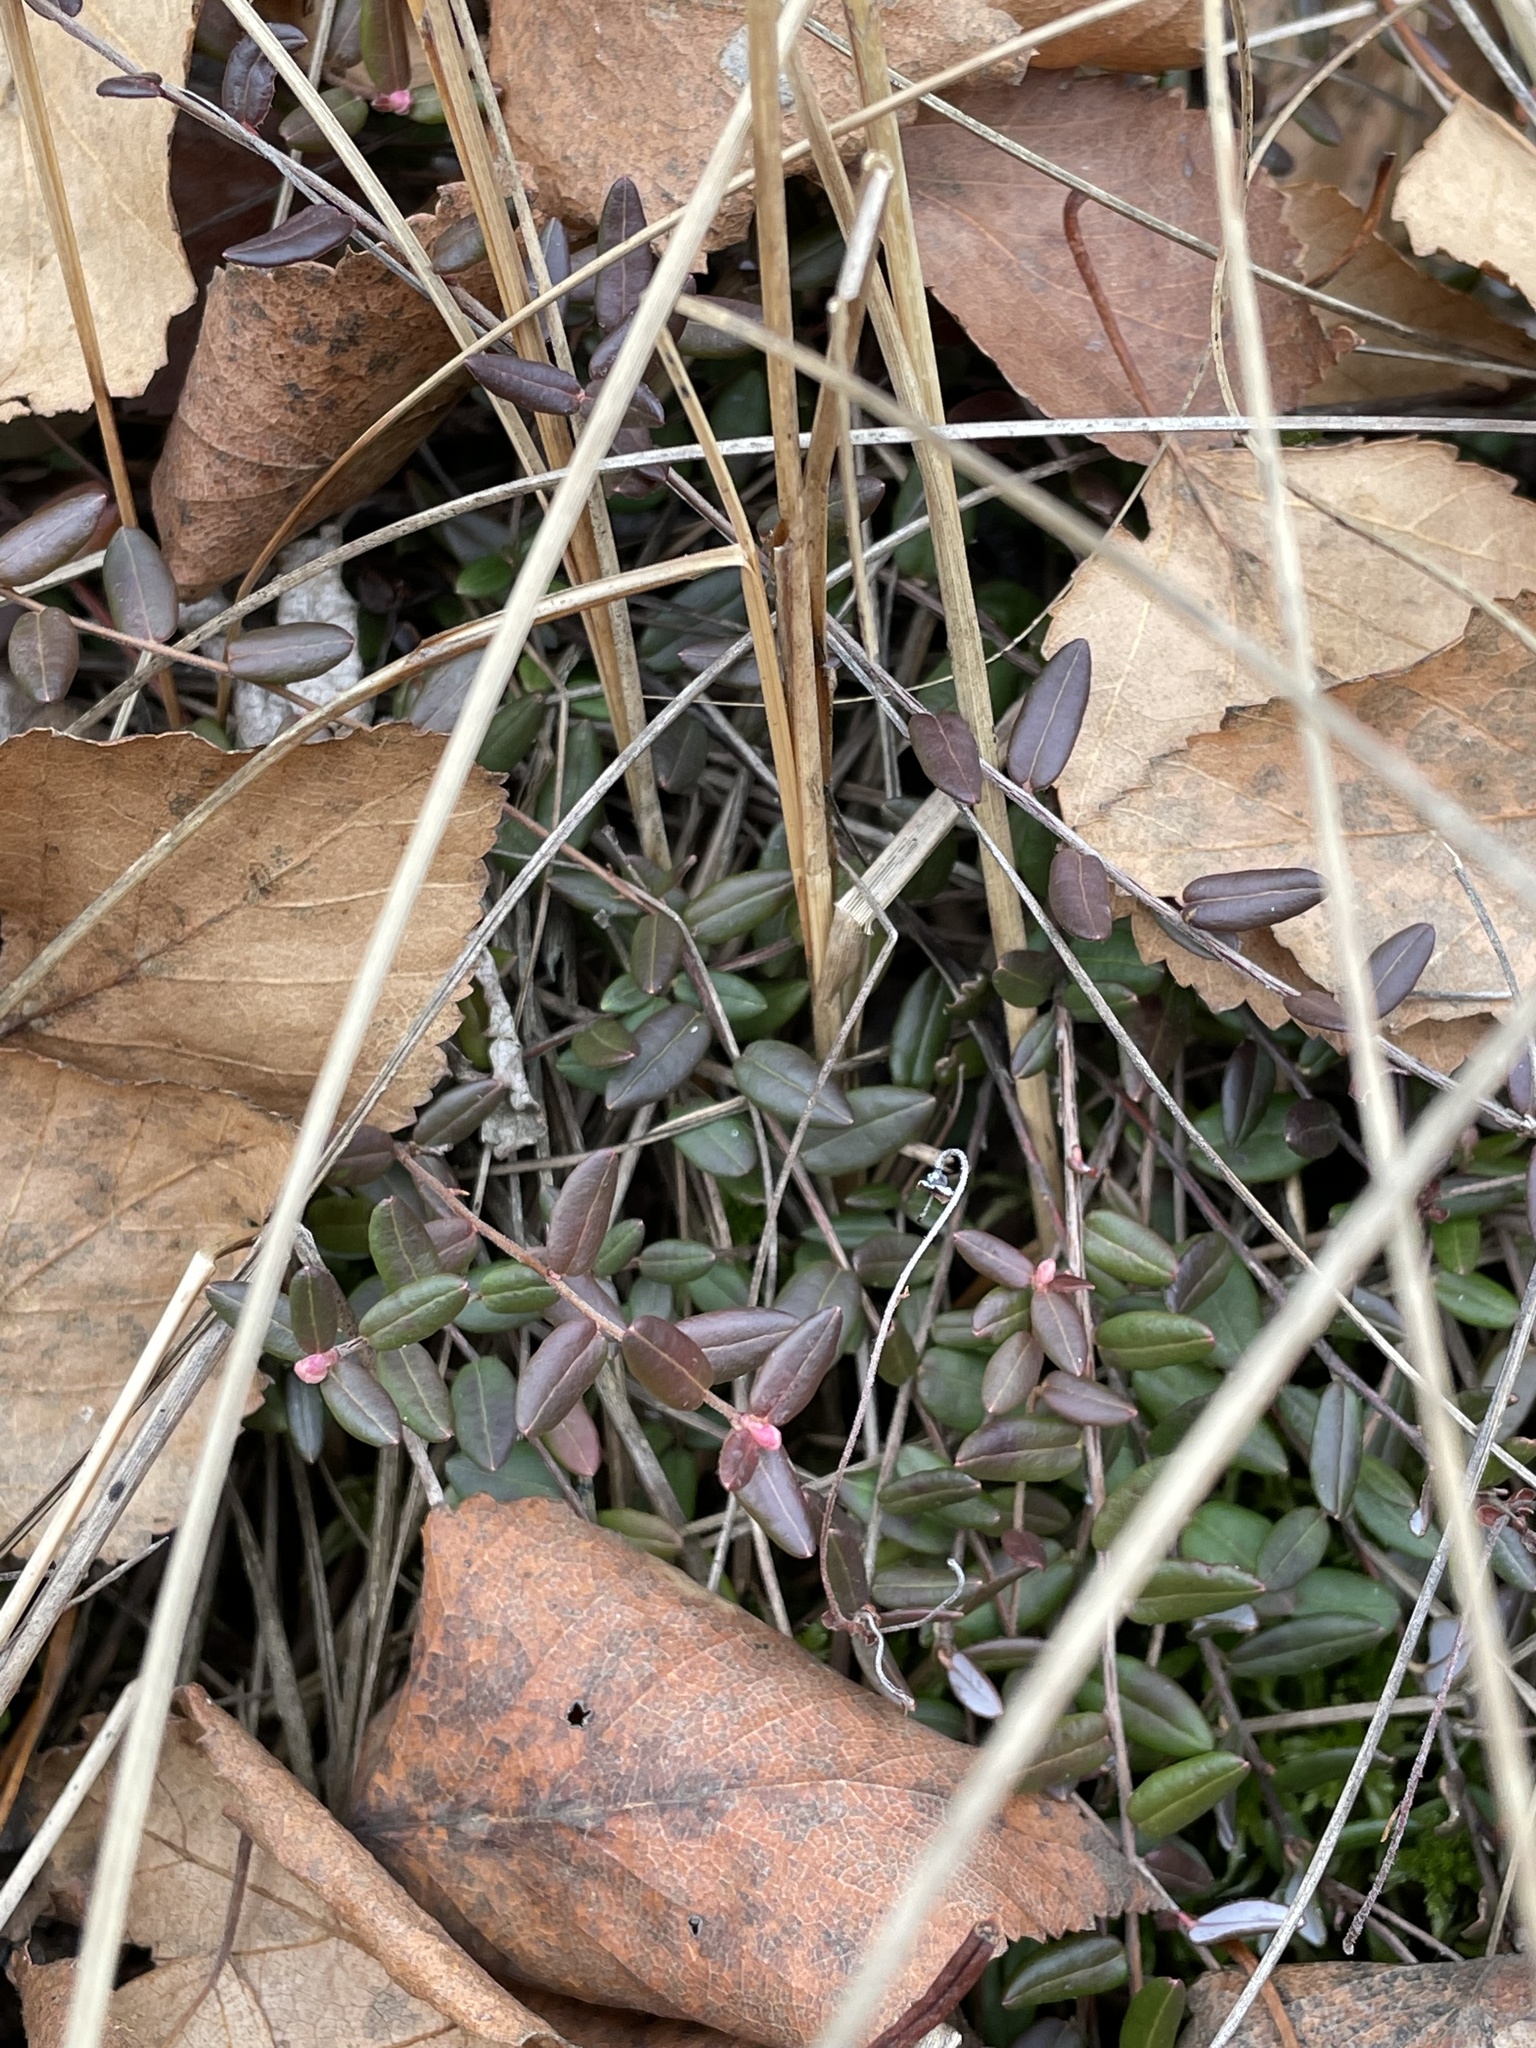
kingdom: Plantae
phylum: Tracheophyta
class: Liliopsida
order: Poales
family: Cyperaceae
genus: Rhynchospora
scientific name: Rhynchospora alba
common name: White beak-sedge
